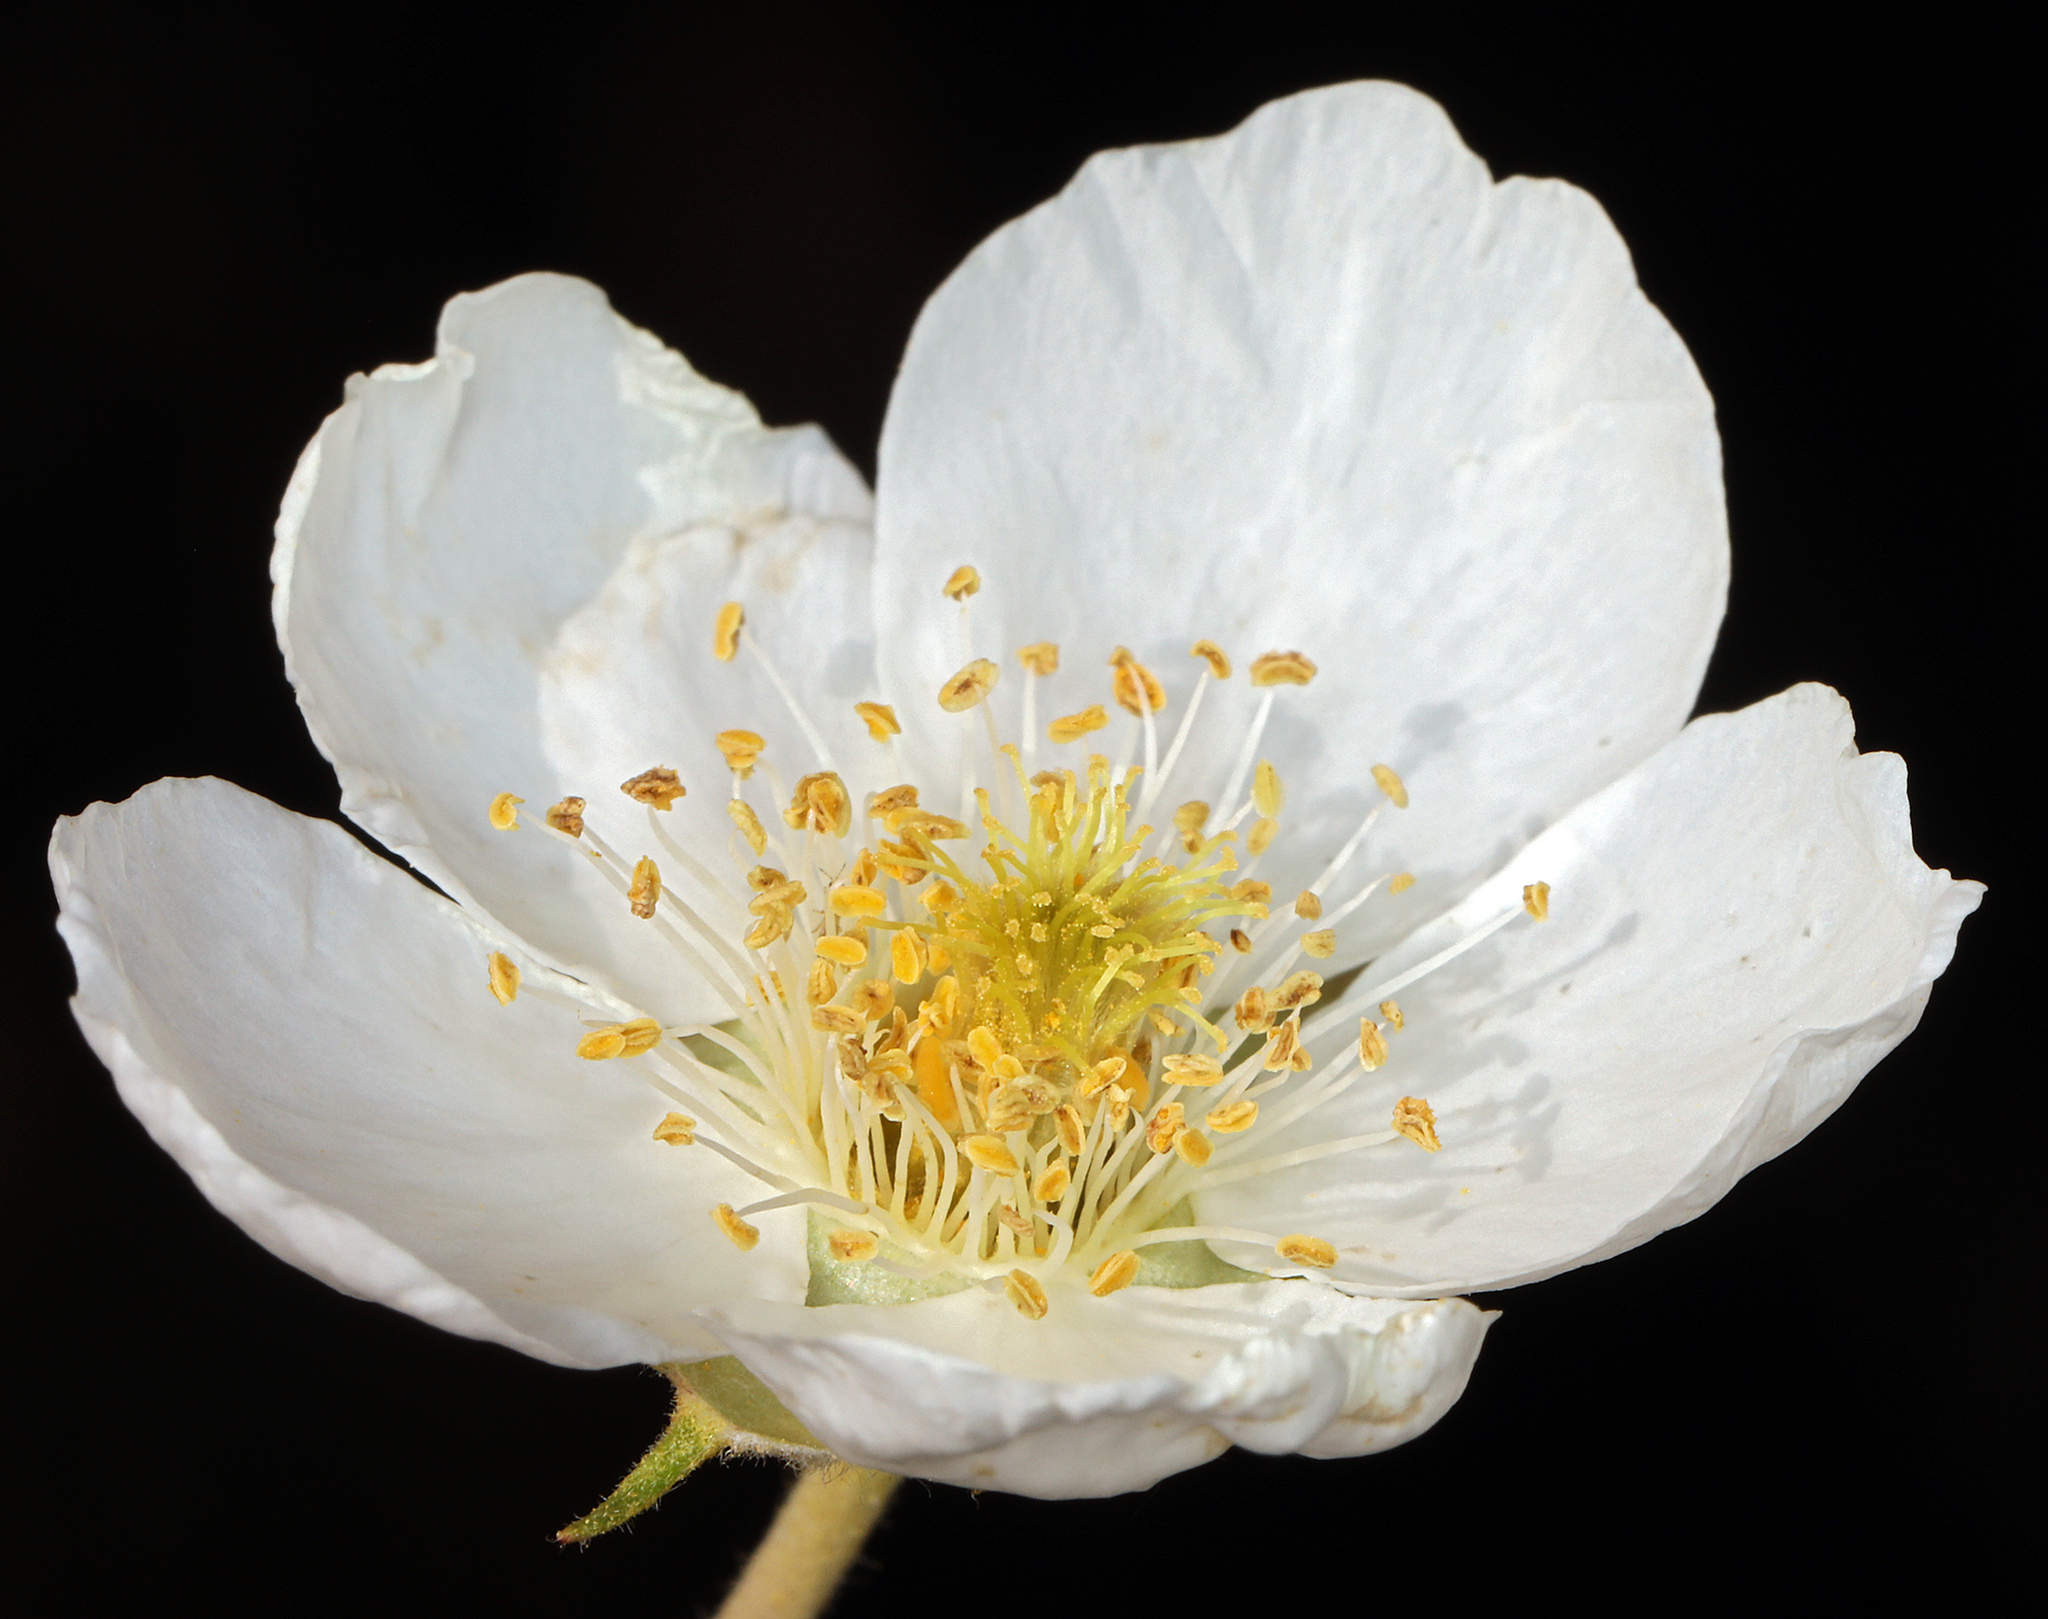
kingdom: Plantae
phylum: Tracheophyta
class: Magnoliopsida
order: Rosales
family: Rosaceae
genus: Fallugia
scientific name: Fallugia paradoxa
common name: Apache-plume
